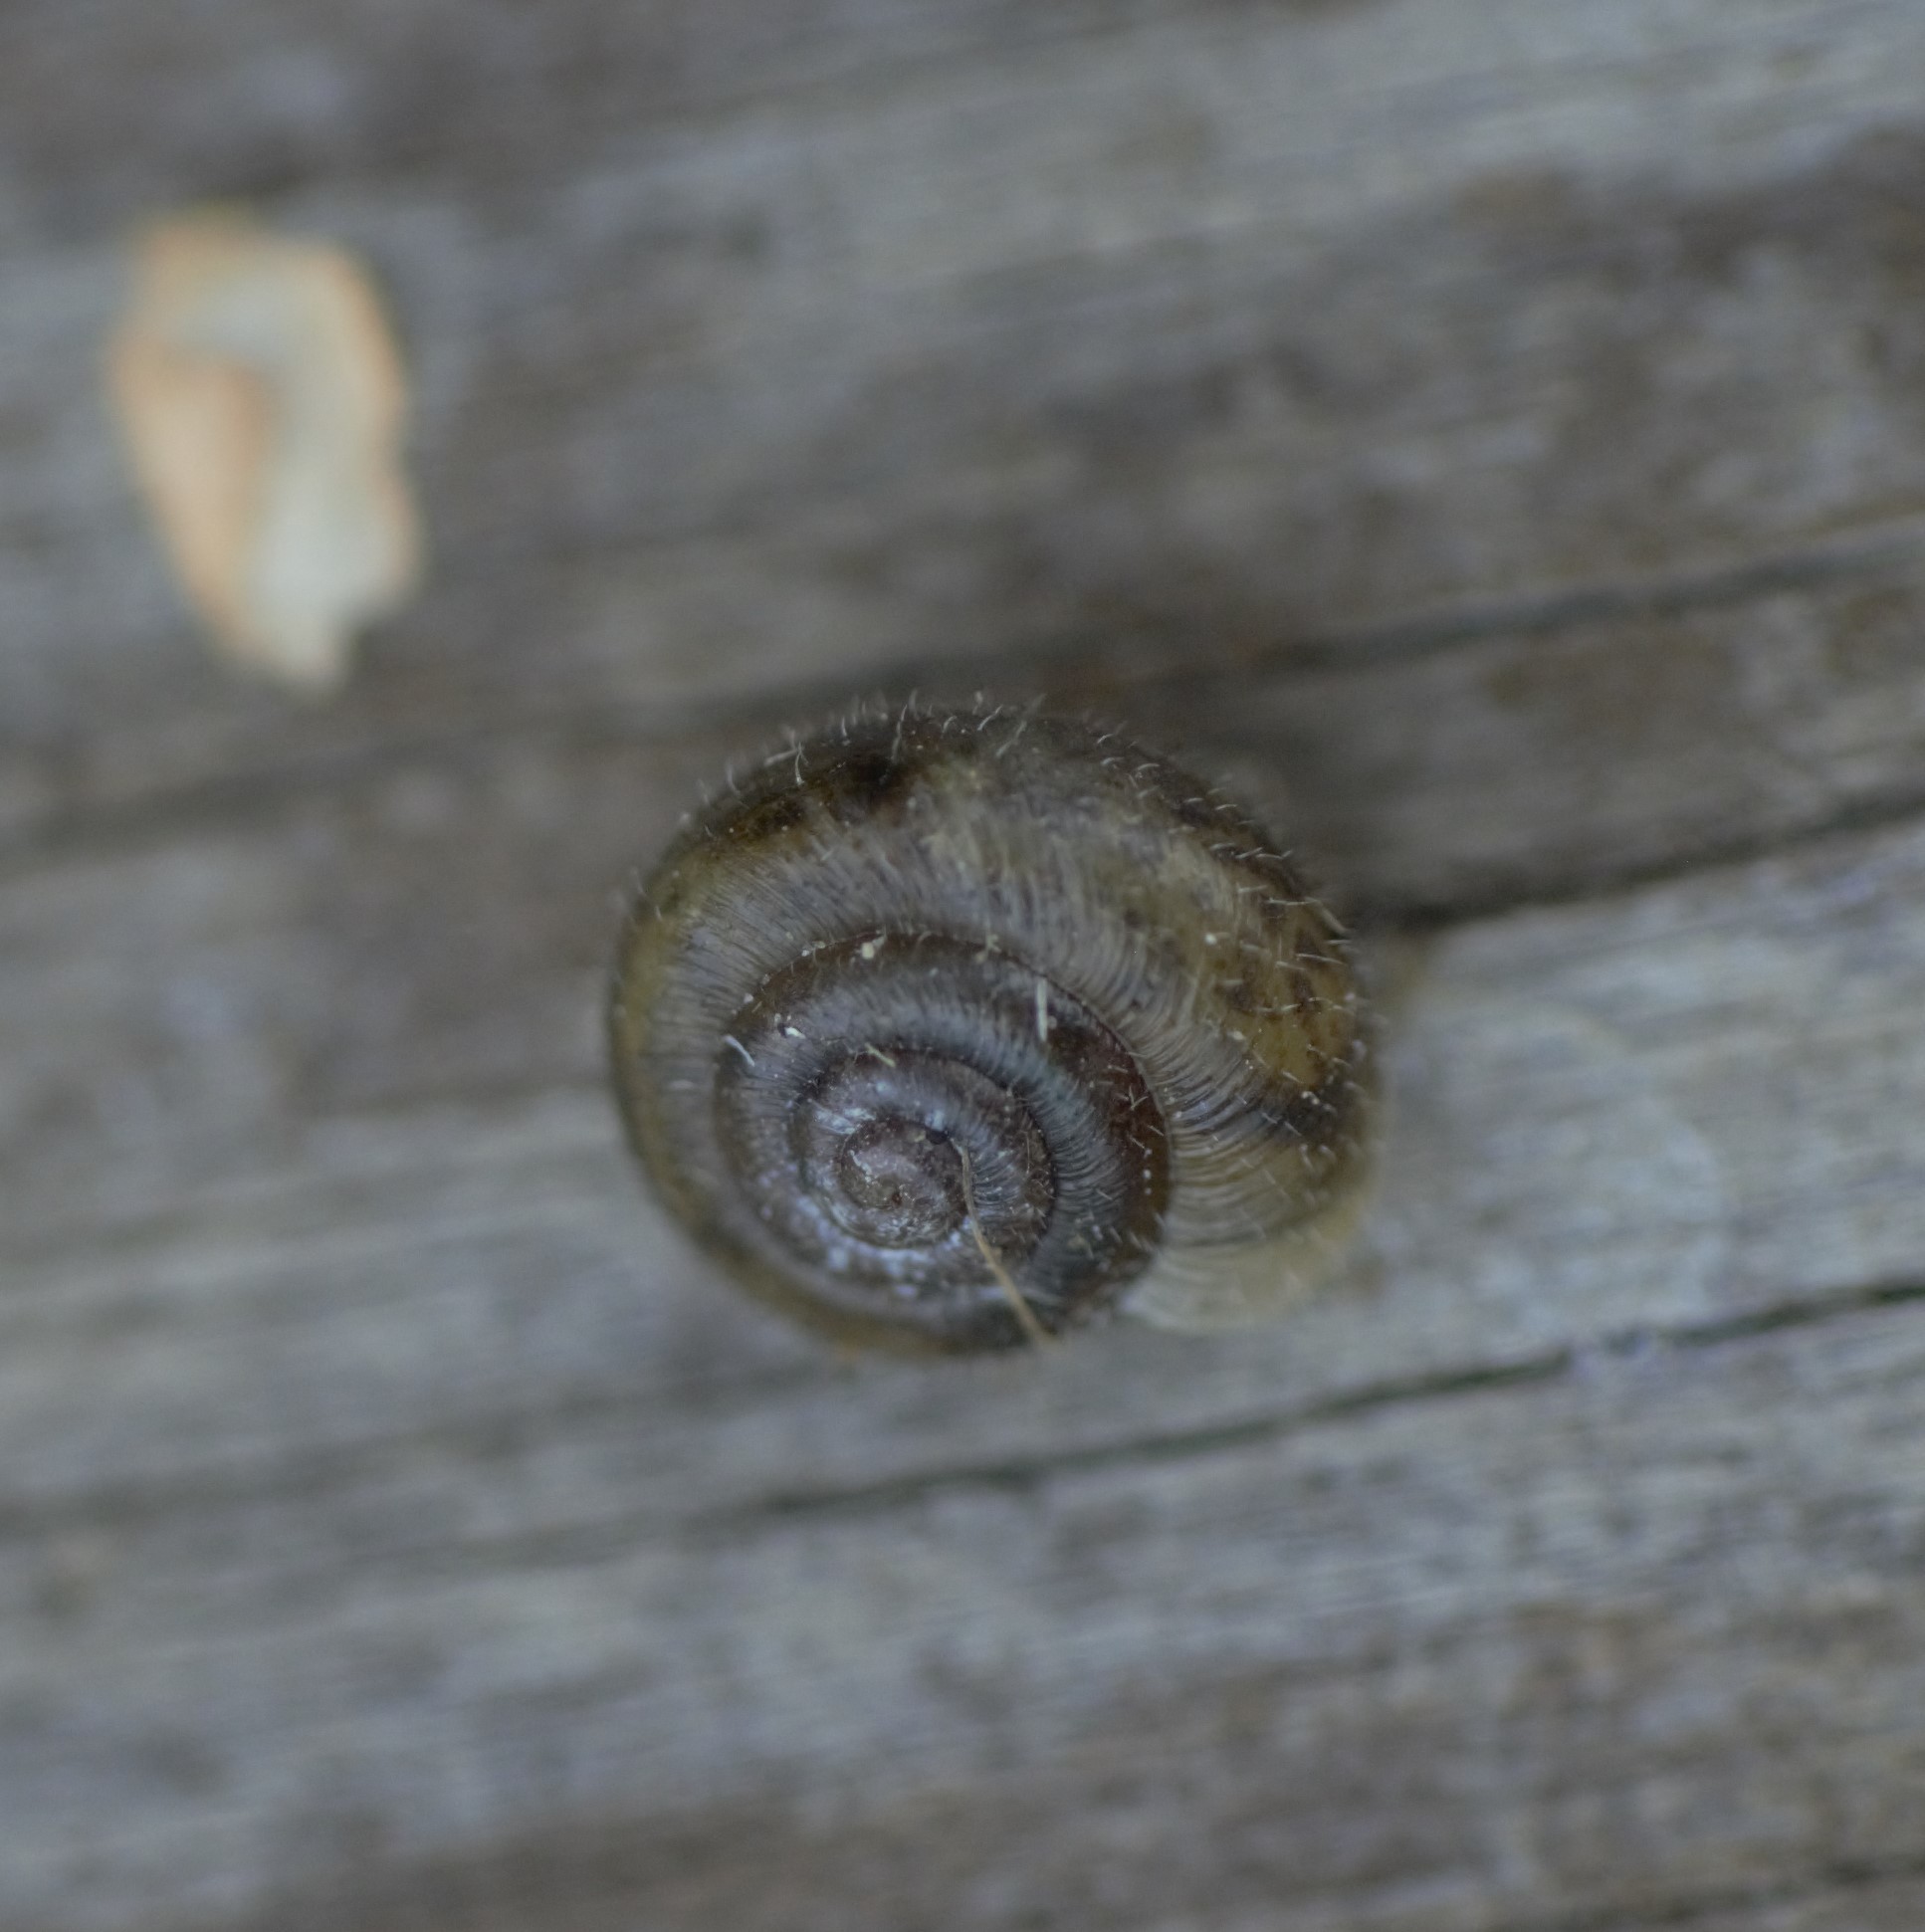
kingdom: Animalia
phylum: Mollusca
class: Gastropoda
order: Stylommatophora
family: Hygromiidae
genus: Trochulus
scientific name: Trochulus hispidus
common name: Hairy snail
